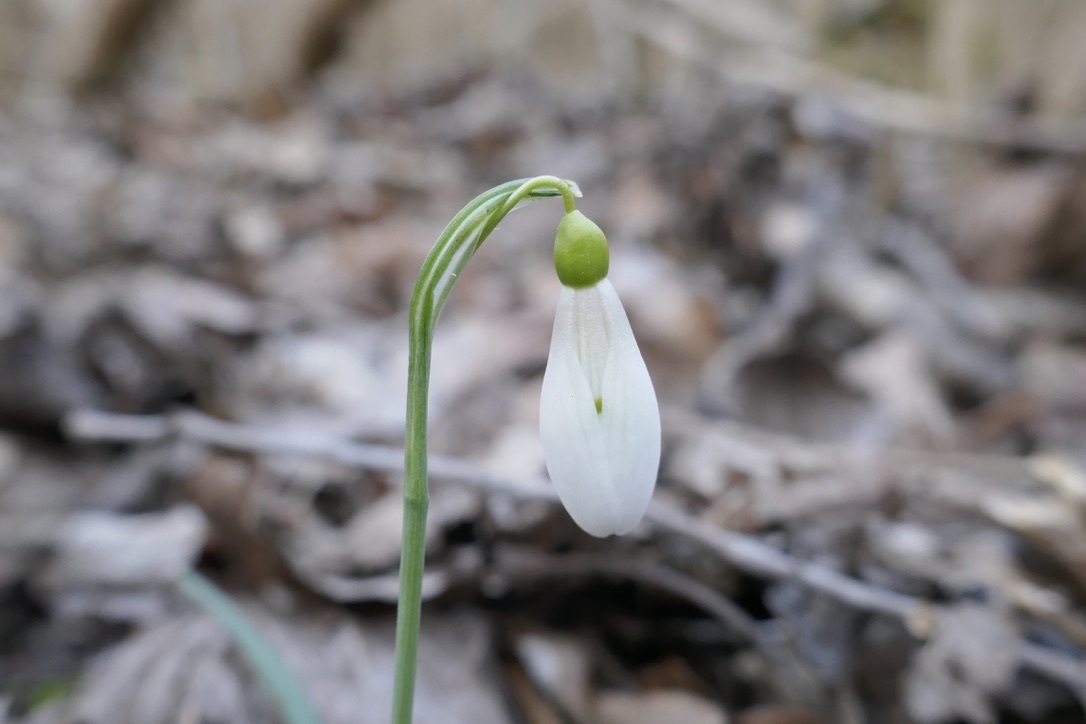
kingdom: Plantae
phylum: Tracheophyta
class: Liliopsida
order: Asparagales
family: Amaryllidaceae
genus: Galanthus
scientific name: Galanthus nivalis
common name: Snowdrop
